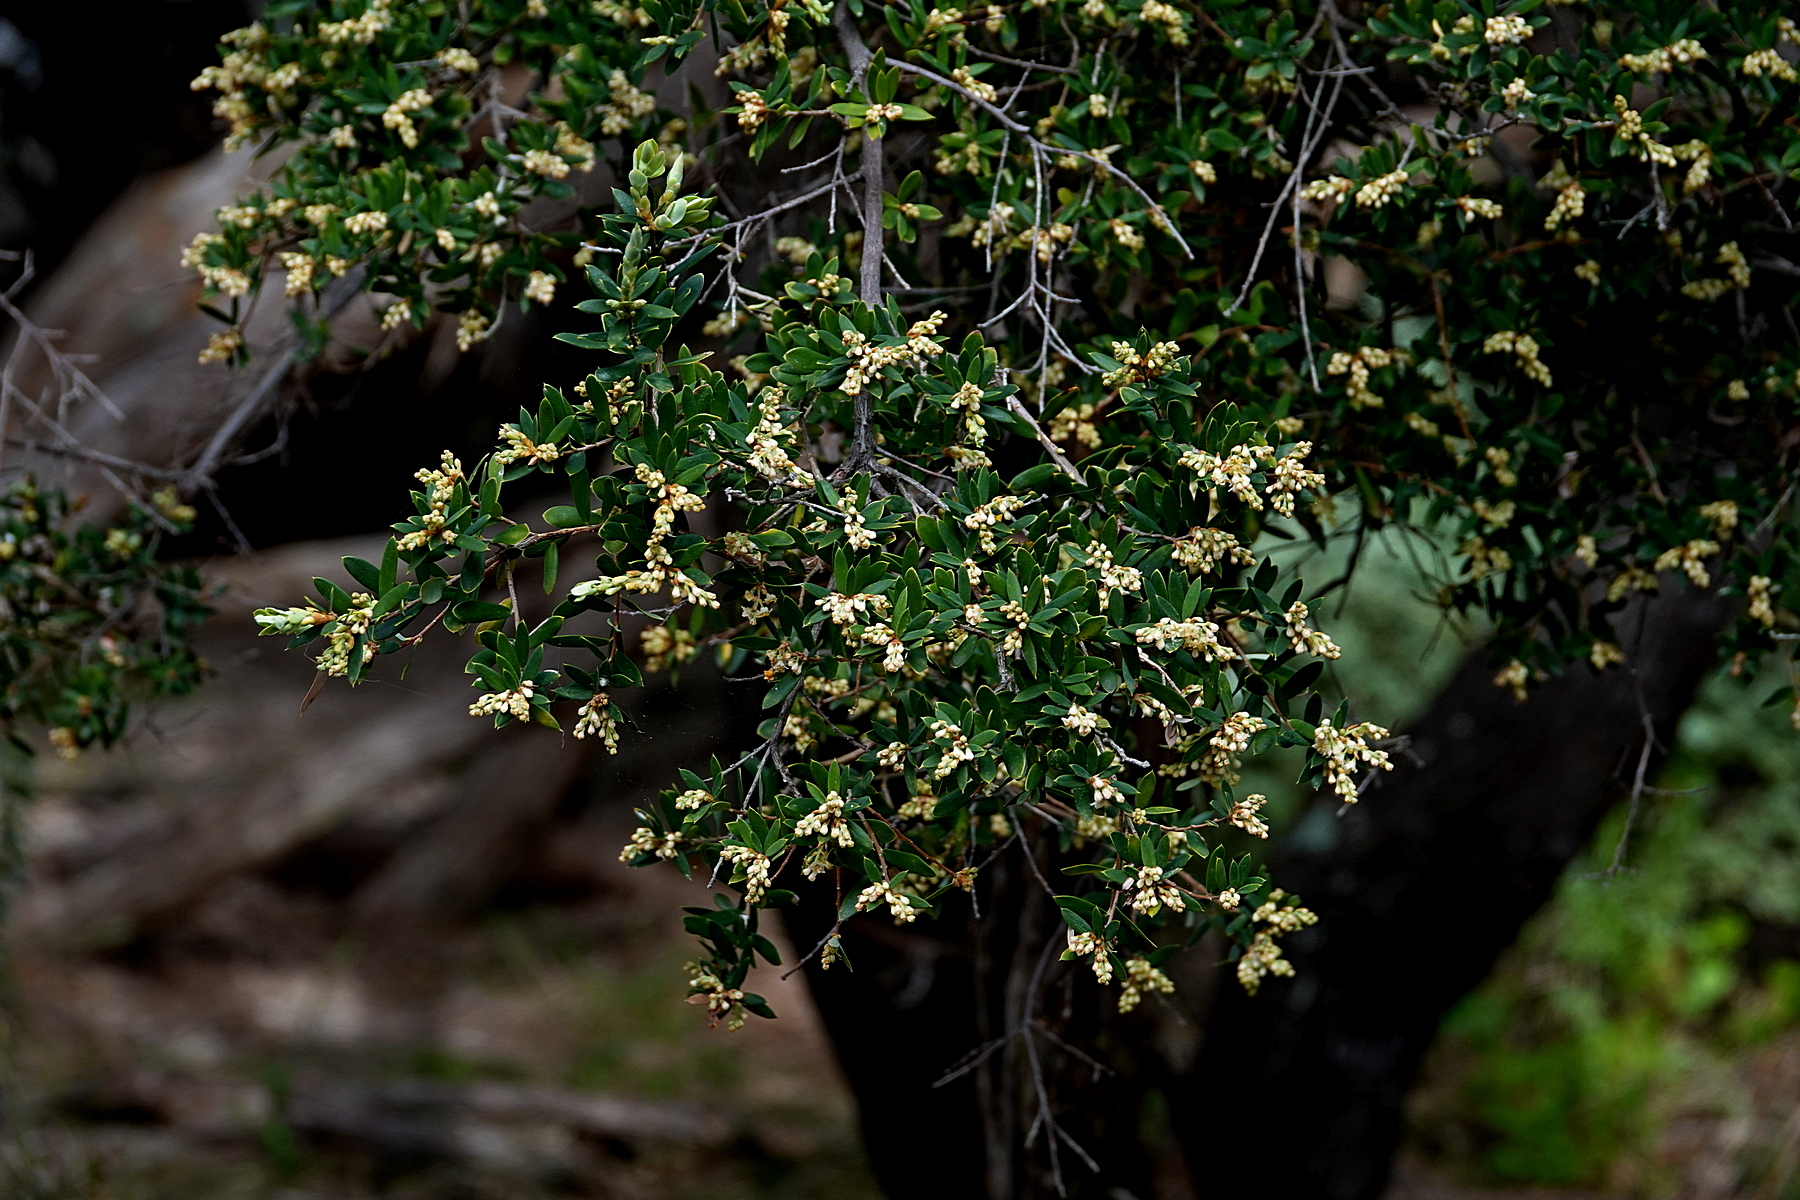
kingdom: Plantae
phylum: Tracheophyta
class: Magnoliopsida
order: Ericales
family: Ericaceae
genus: Monotoca
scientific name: Monotoca elliptica
